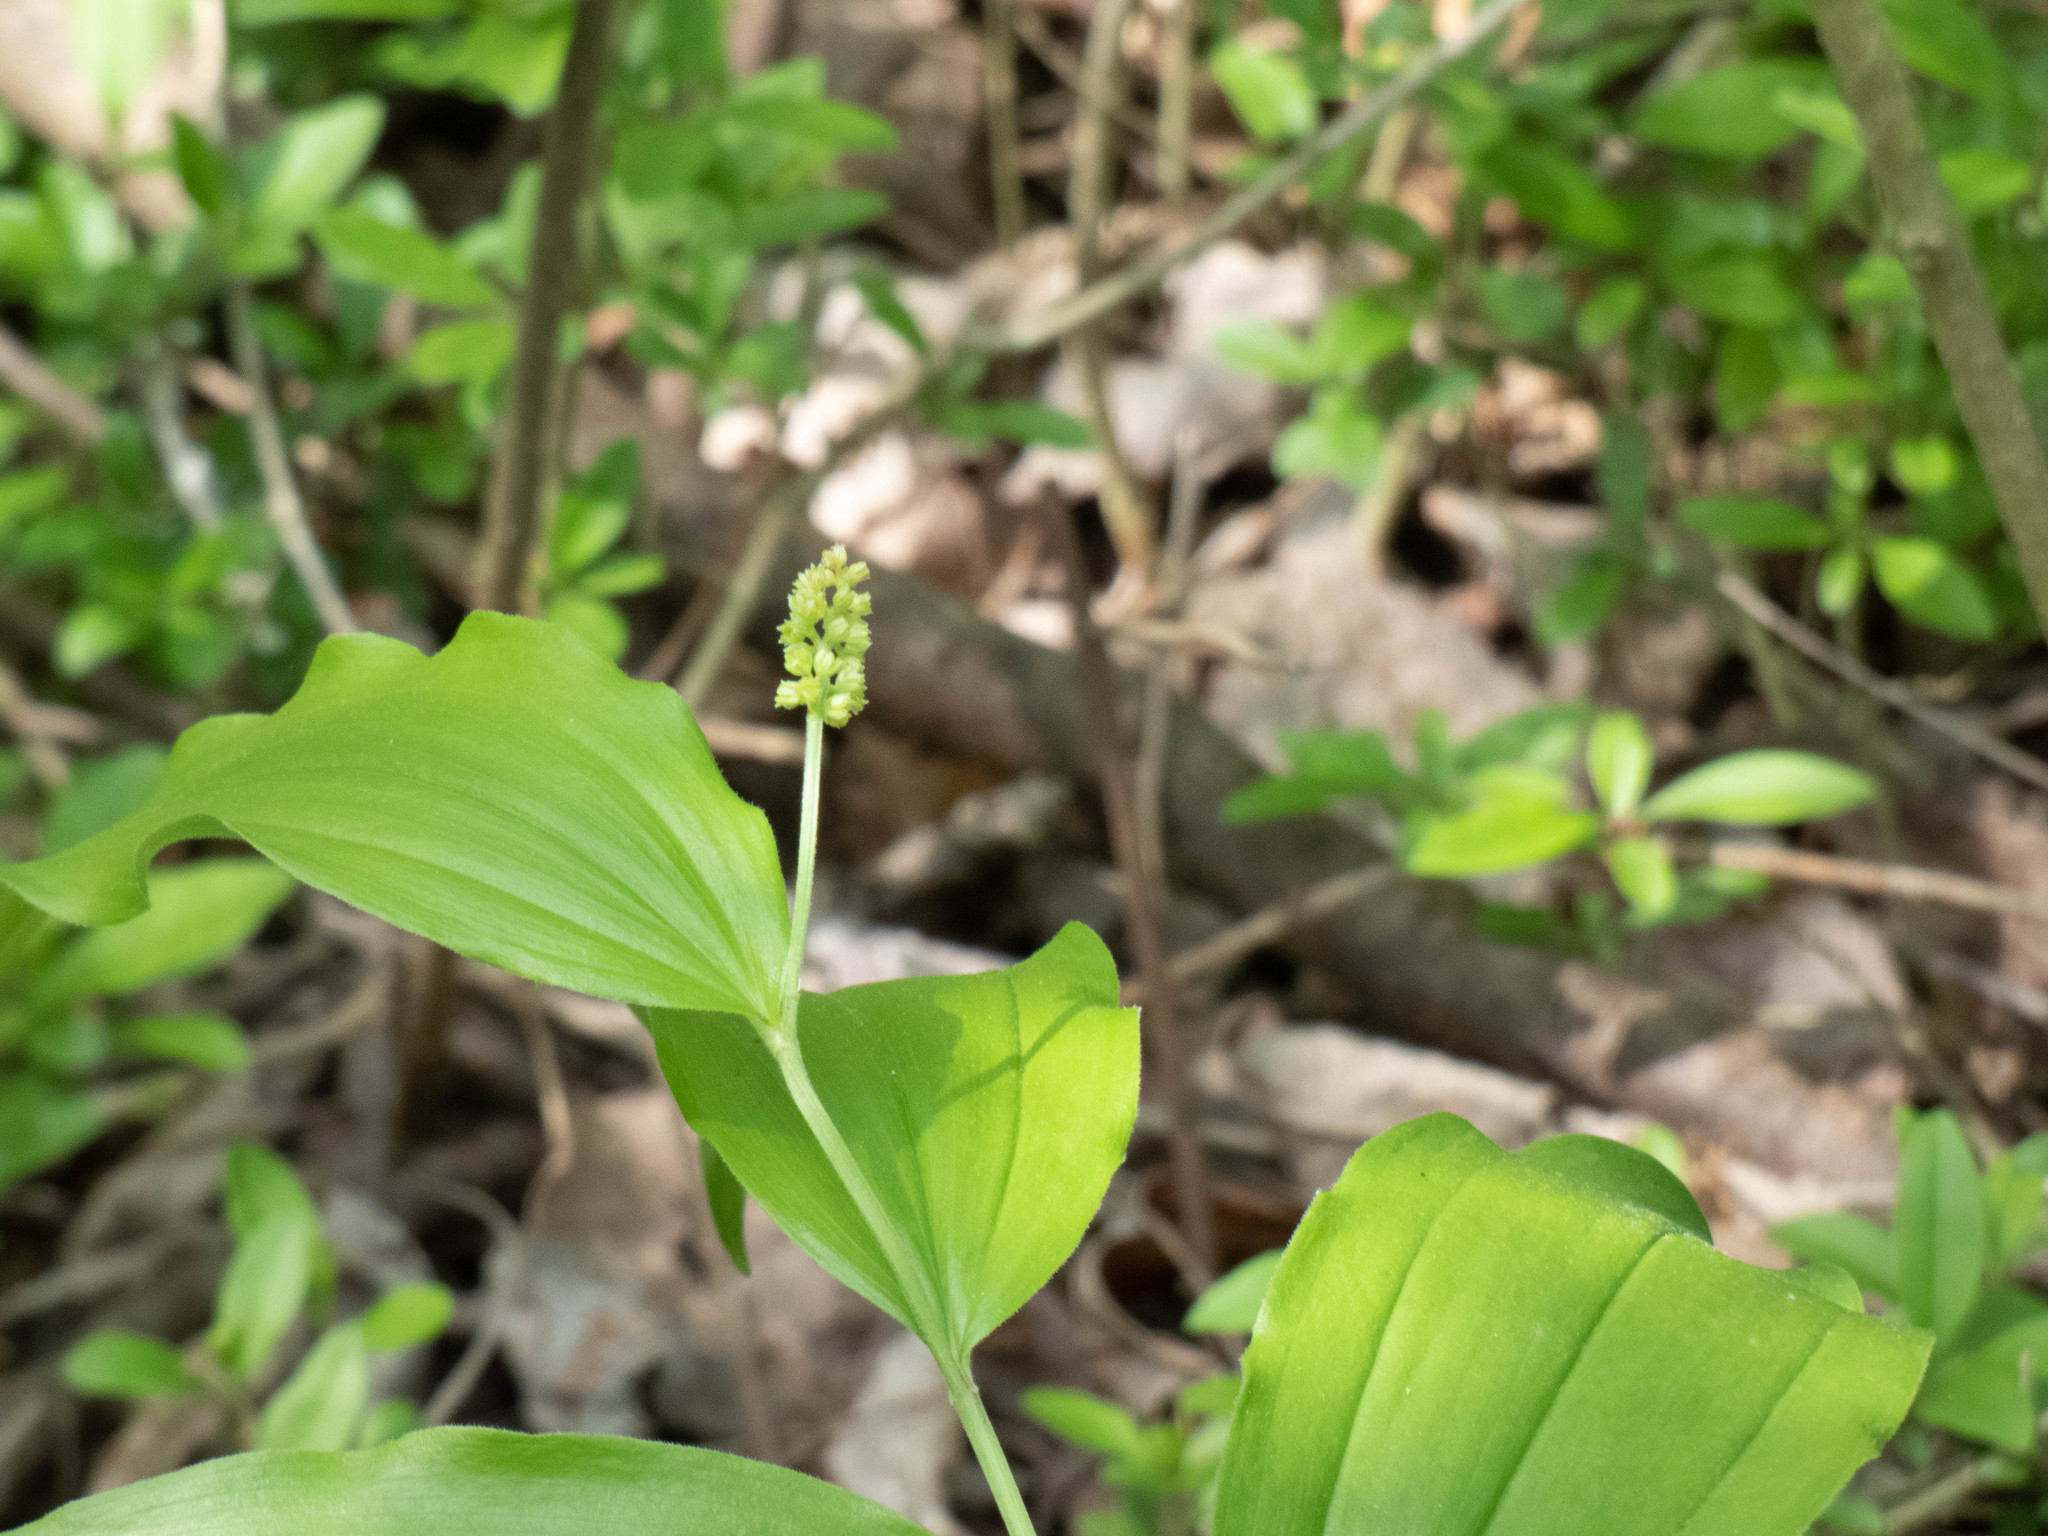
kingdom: Plantae
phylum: Tracheophyta
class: Liliopsida
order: Asparagales
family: Asparagaceae
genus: Maianthemum
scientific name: Maianthemum racemosum
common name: False spikenard
